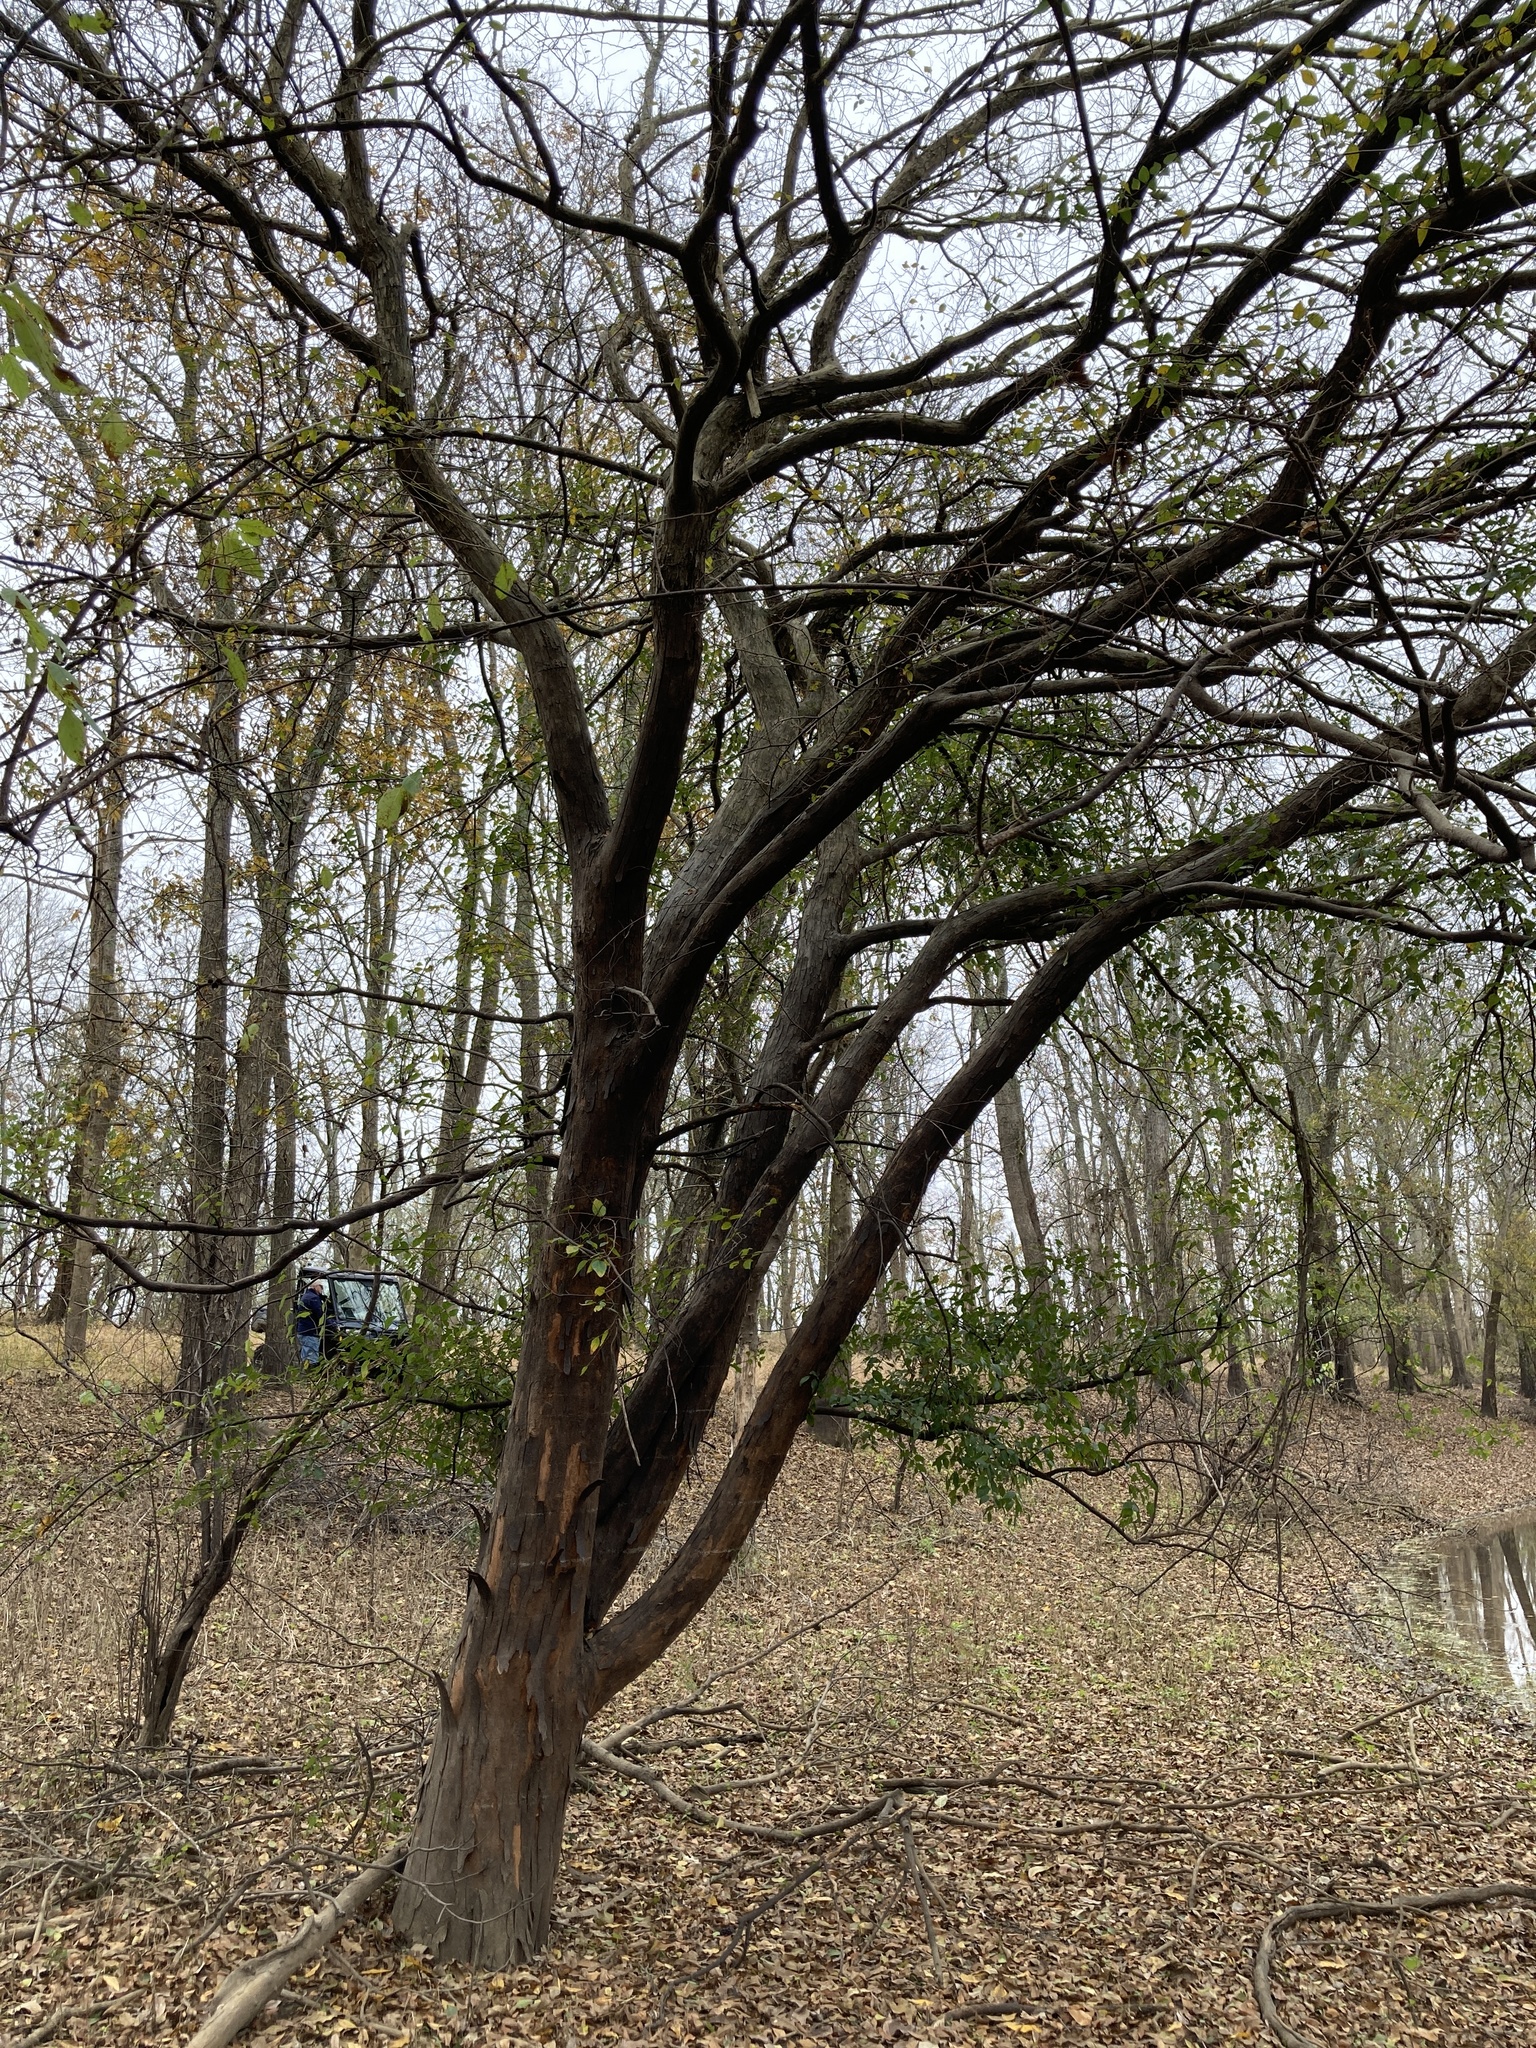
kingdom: Plantae
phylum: Tracheophyta
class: Magnoliopsida
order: Rosales
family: Ulmaceae
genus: Planera
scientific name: Planera aquatica
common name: Water-elm
